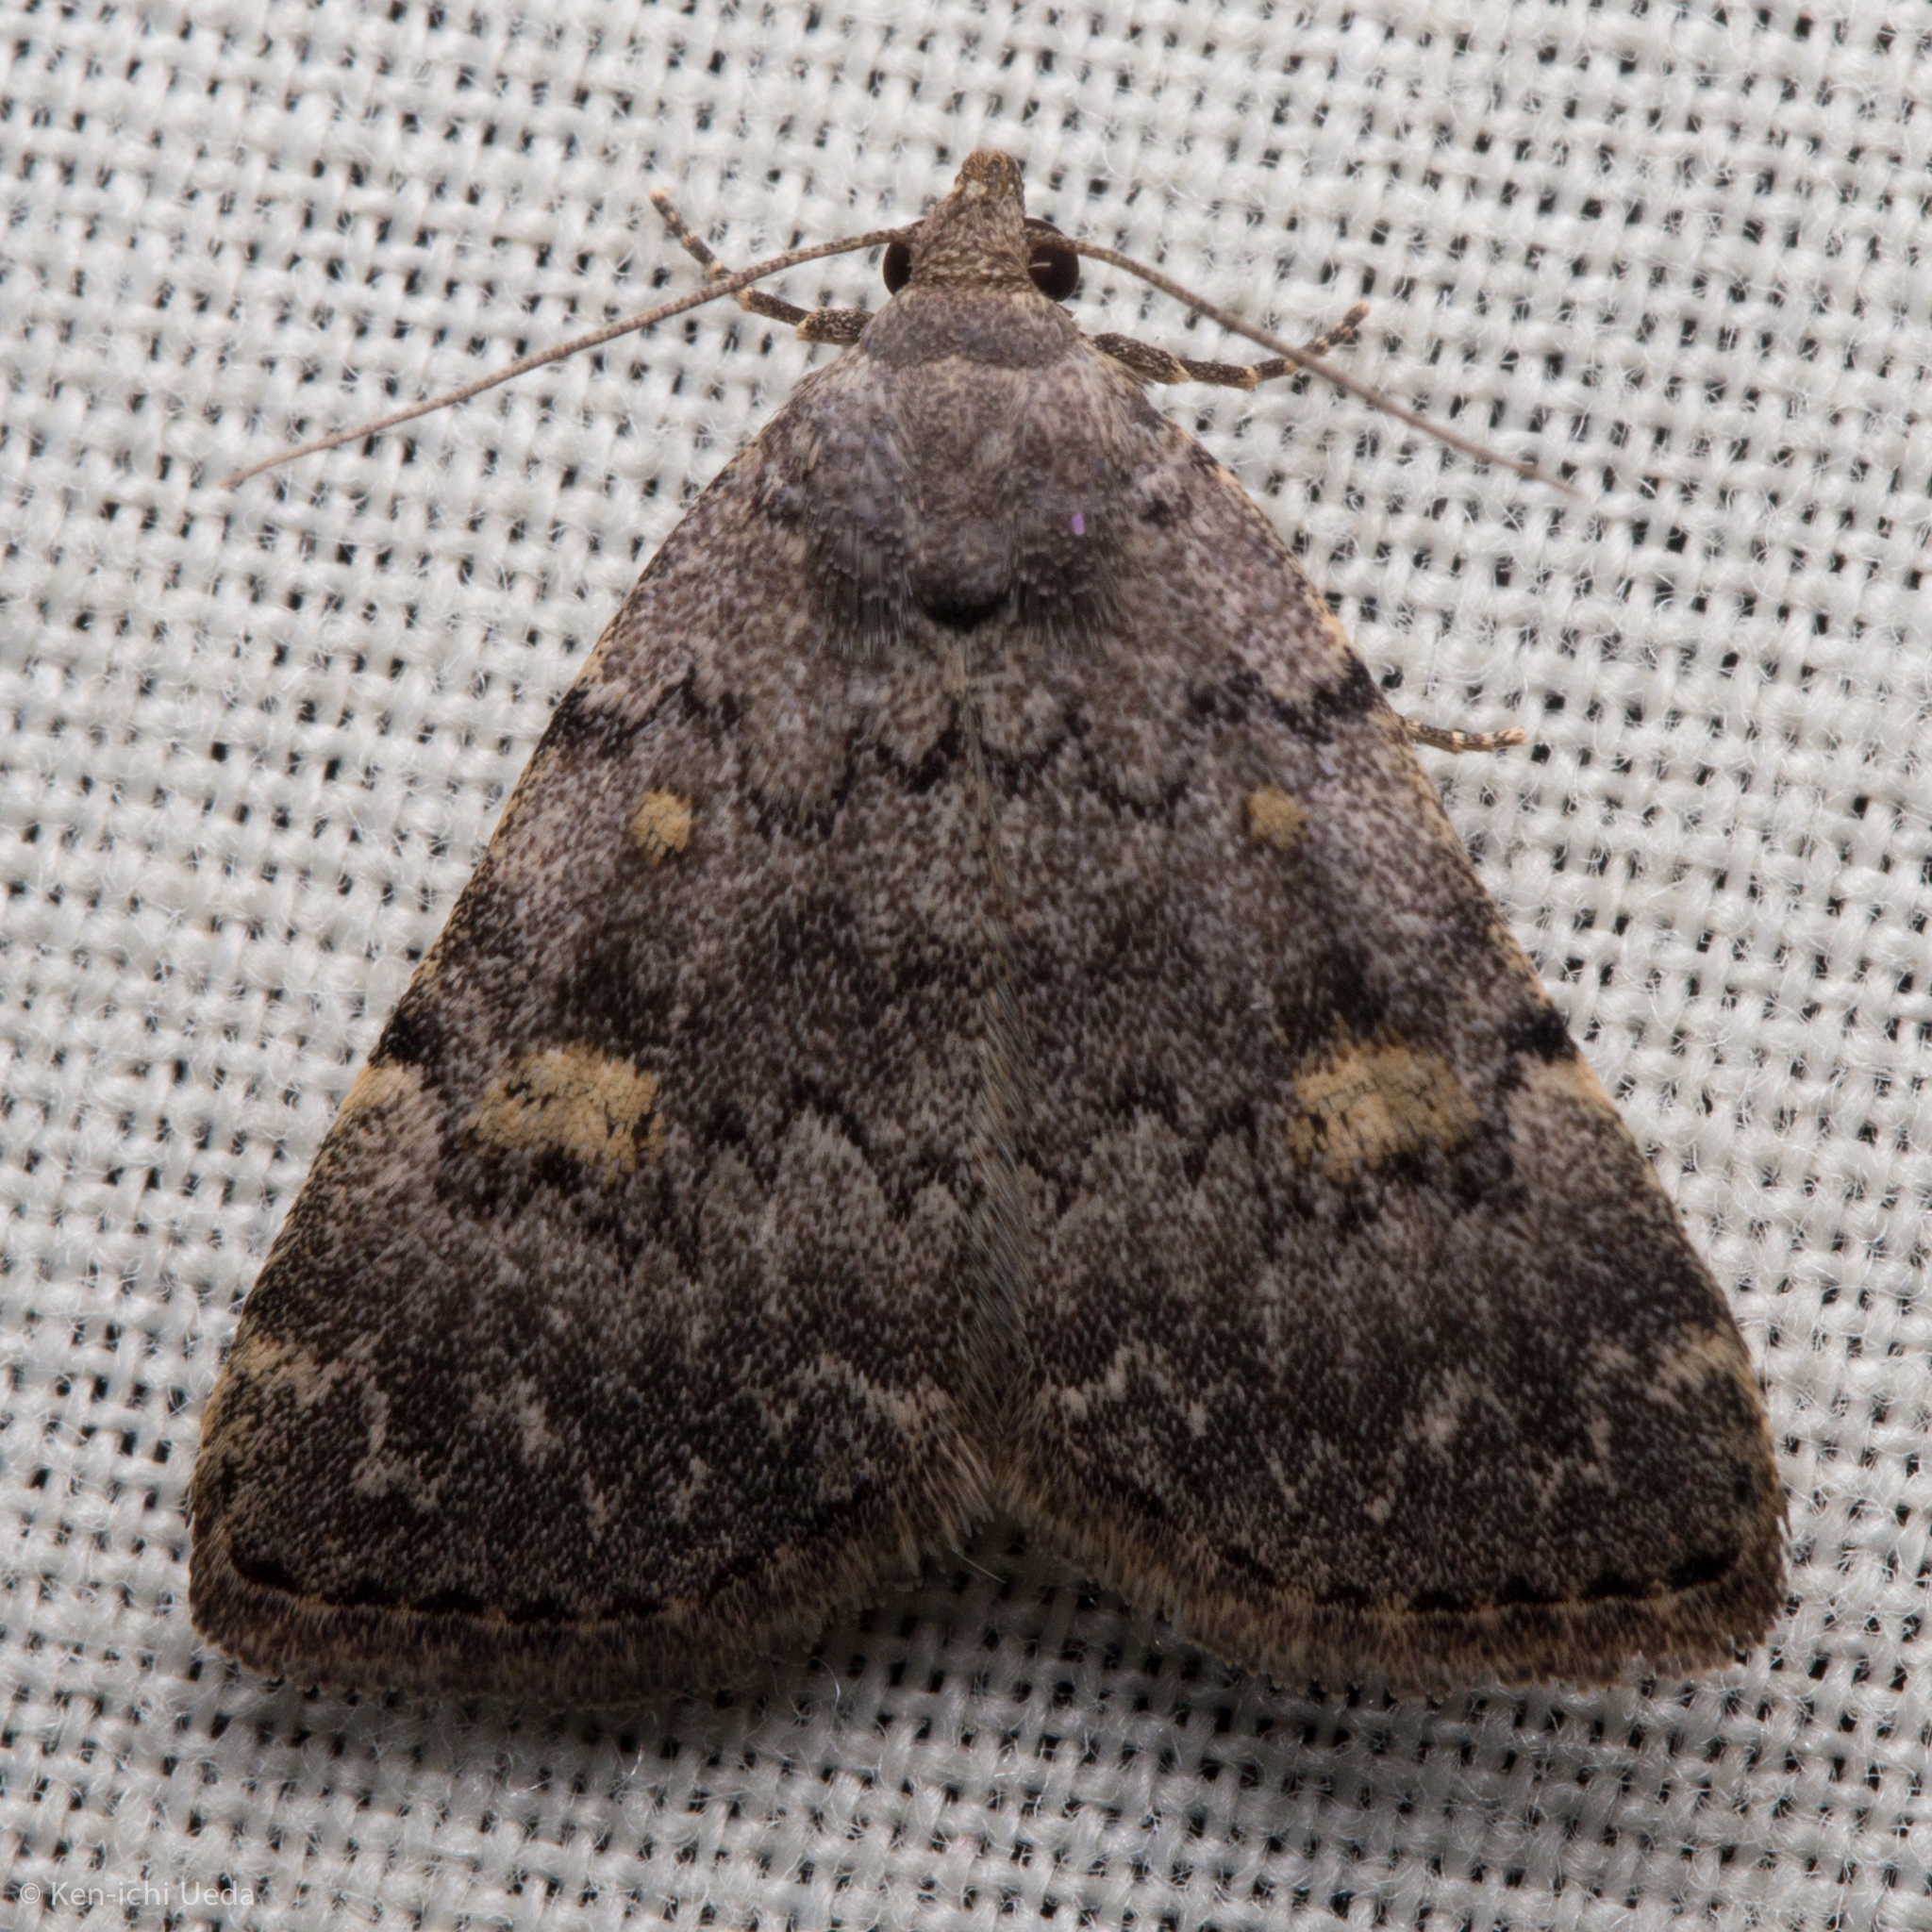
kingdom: Animalia
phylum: Arthropoda
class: Insecta
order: Lepidoptera
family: Erebidae
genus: Idia
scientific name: Idia aemula
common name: Common idia moth
